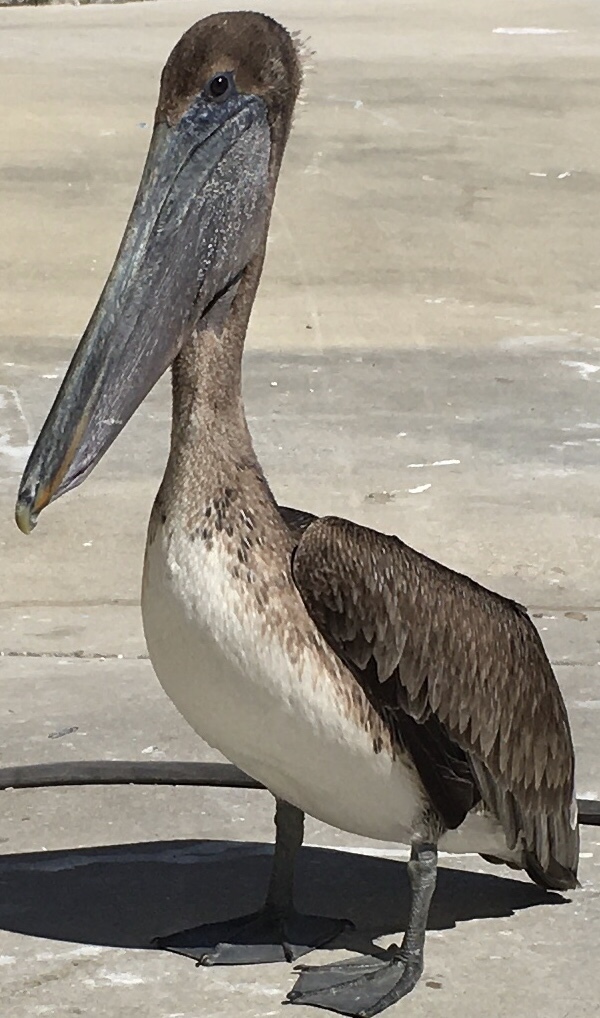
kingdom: Animalia
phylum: Chordata
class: Aves
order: Pelecaniformes
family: Pelecanidae
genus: Pelecanus
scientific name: Pelecanus occidentalis
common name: Brown pelican
